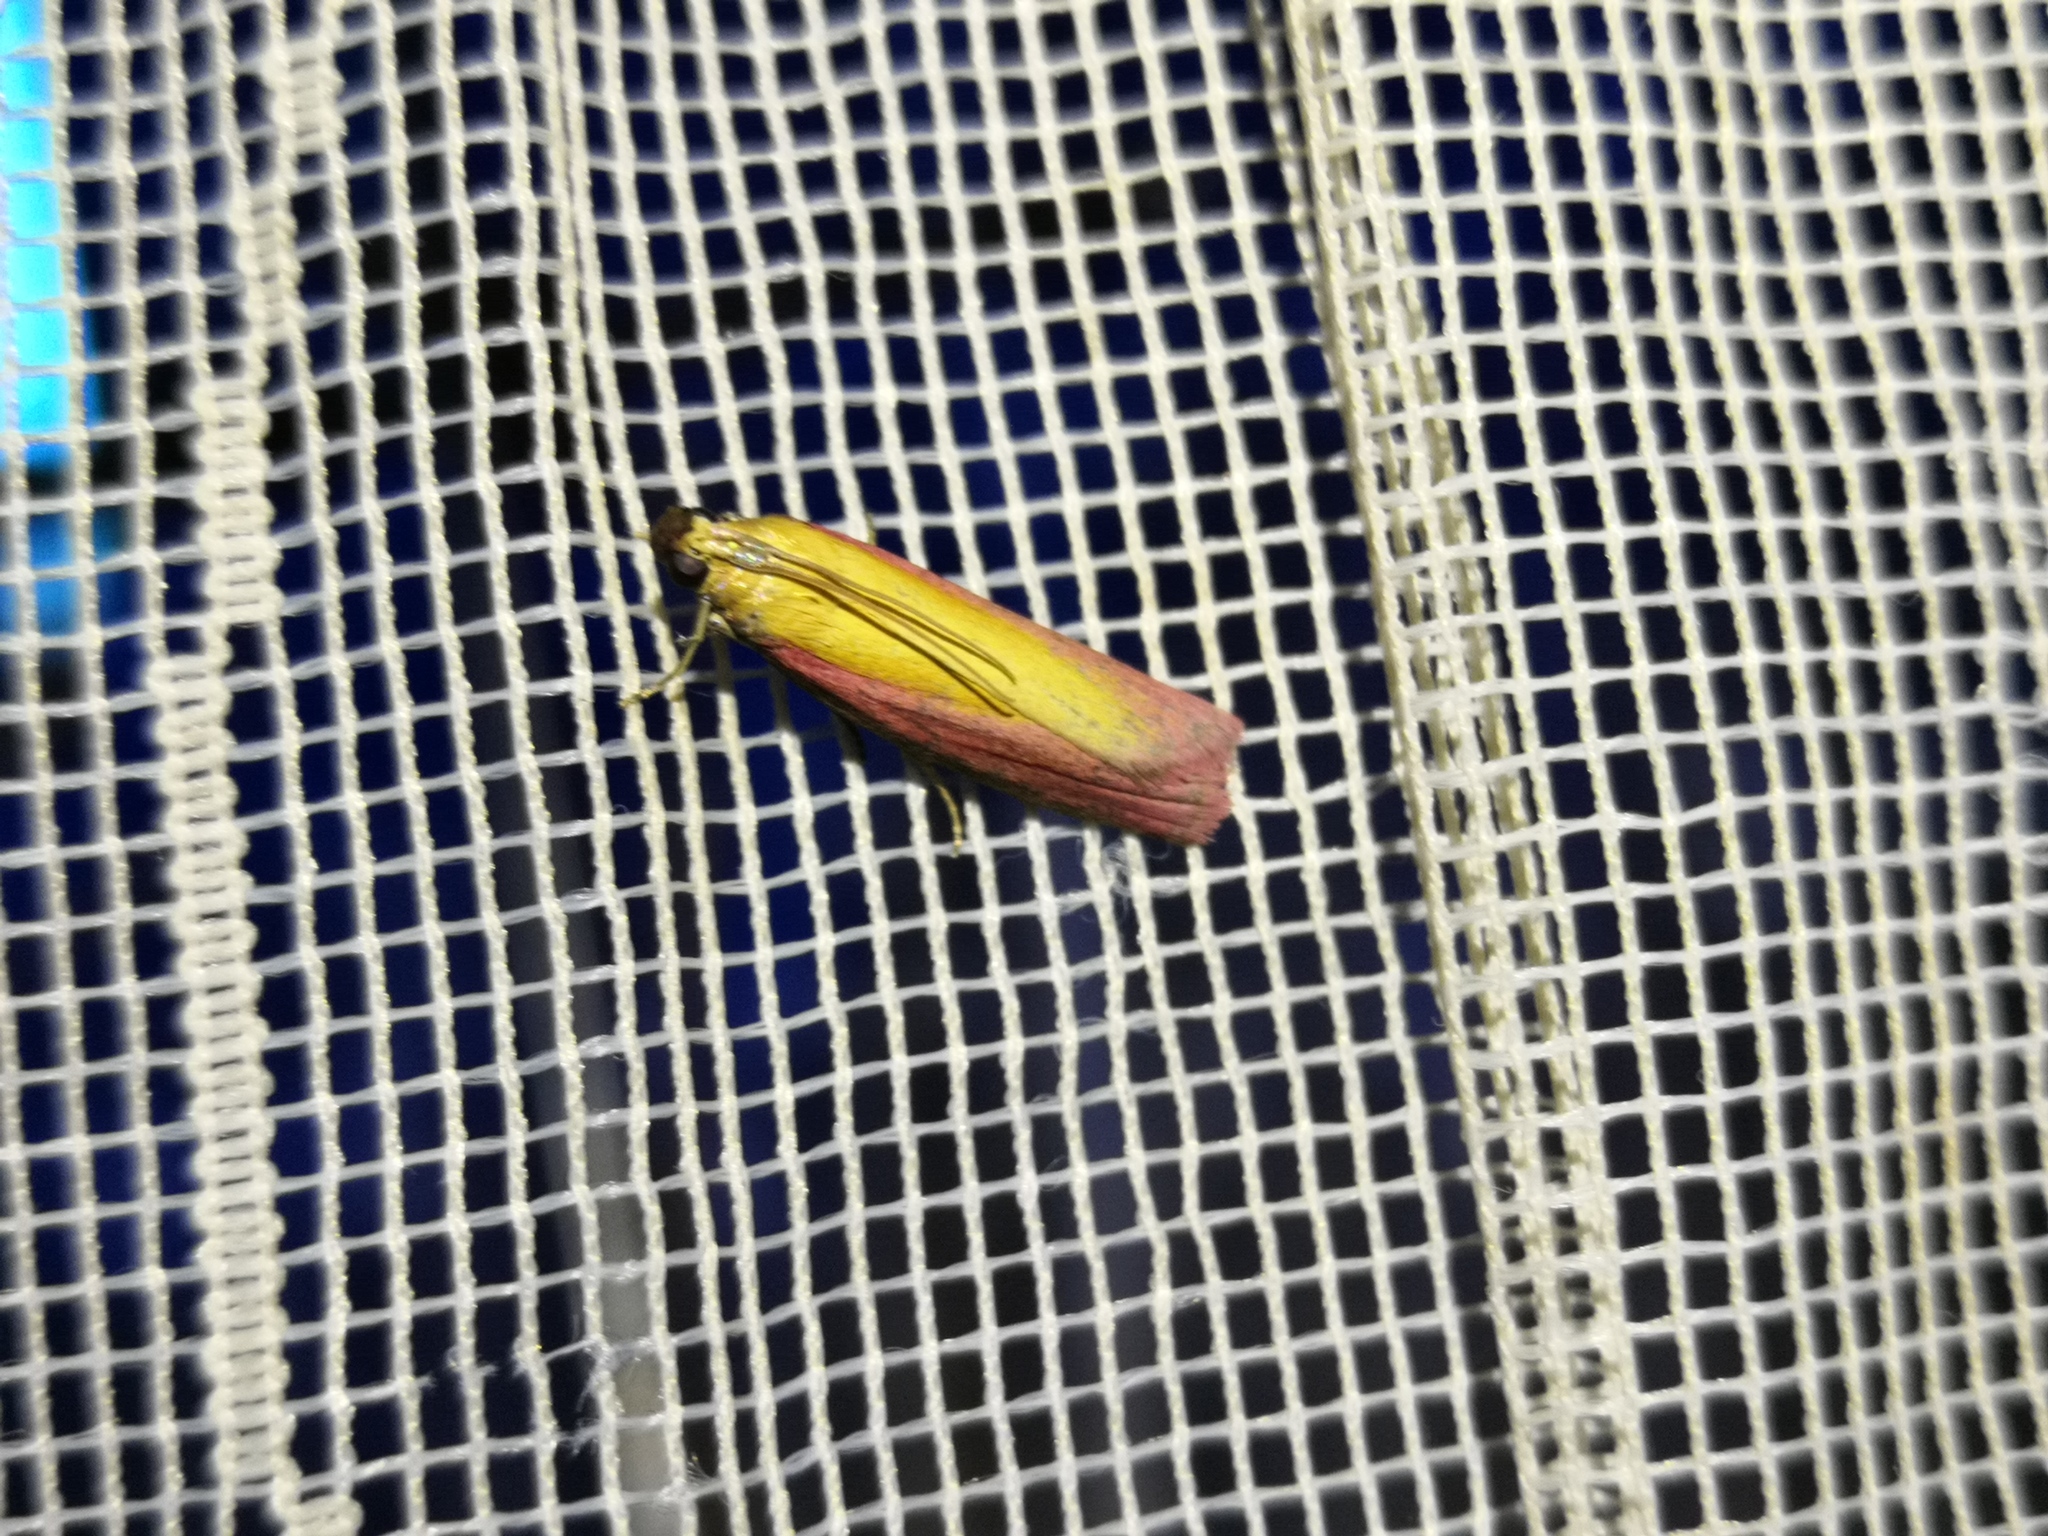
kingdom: Animalia
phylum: Arthropoda
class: Insecta
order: Lepidoptera
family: Pyralidae
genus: Oncocera
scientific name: Oncocera semirubella
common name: Rosy-striped knot-horn
